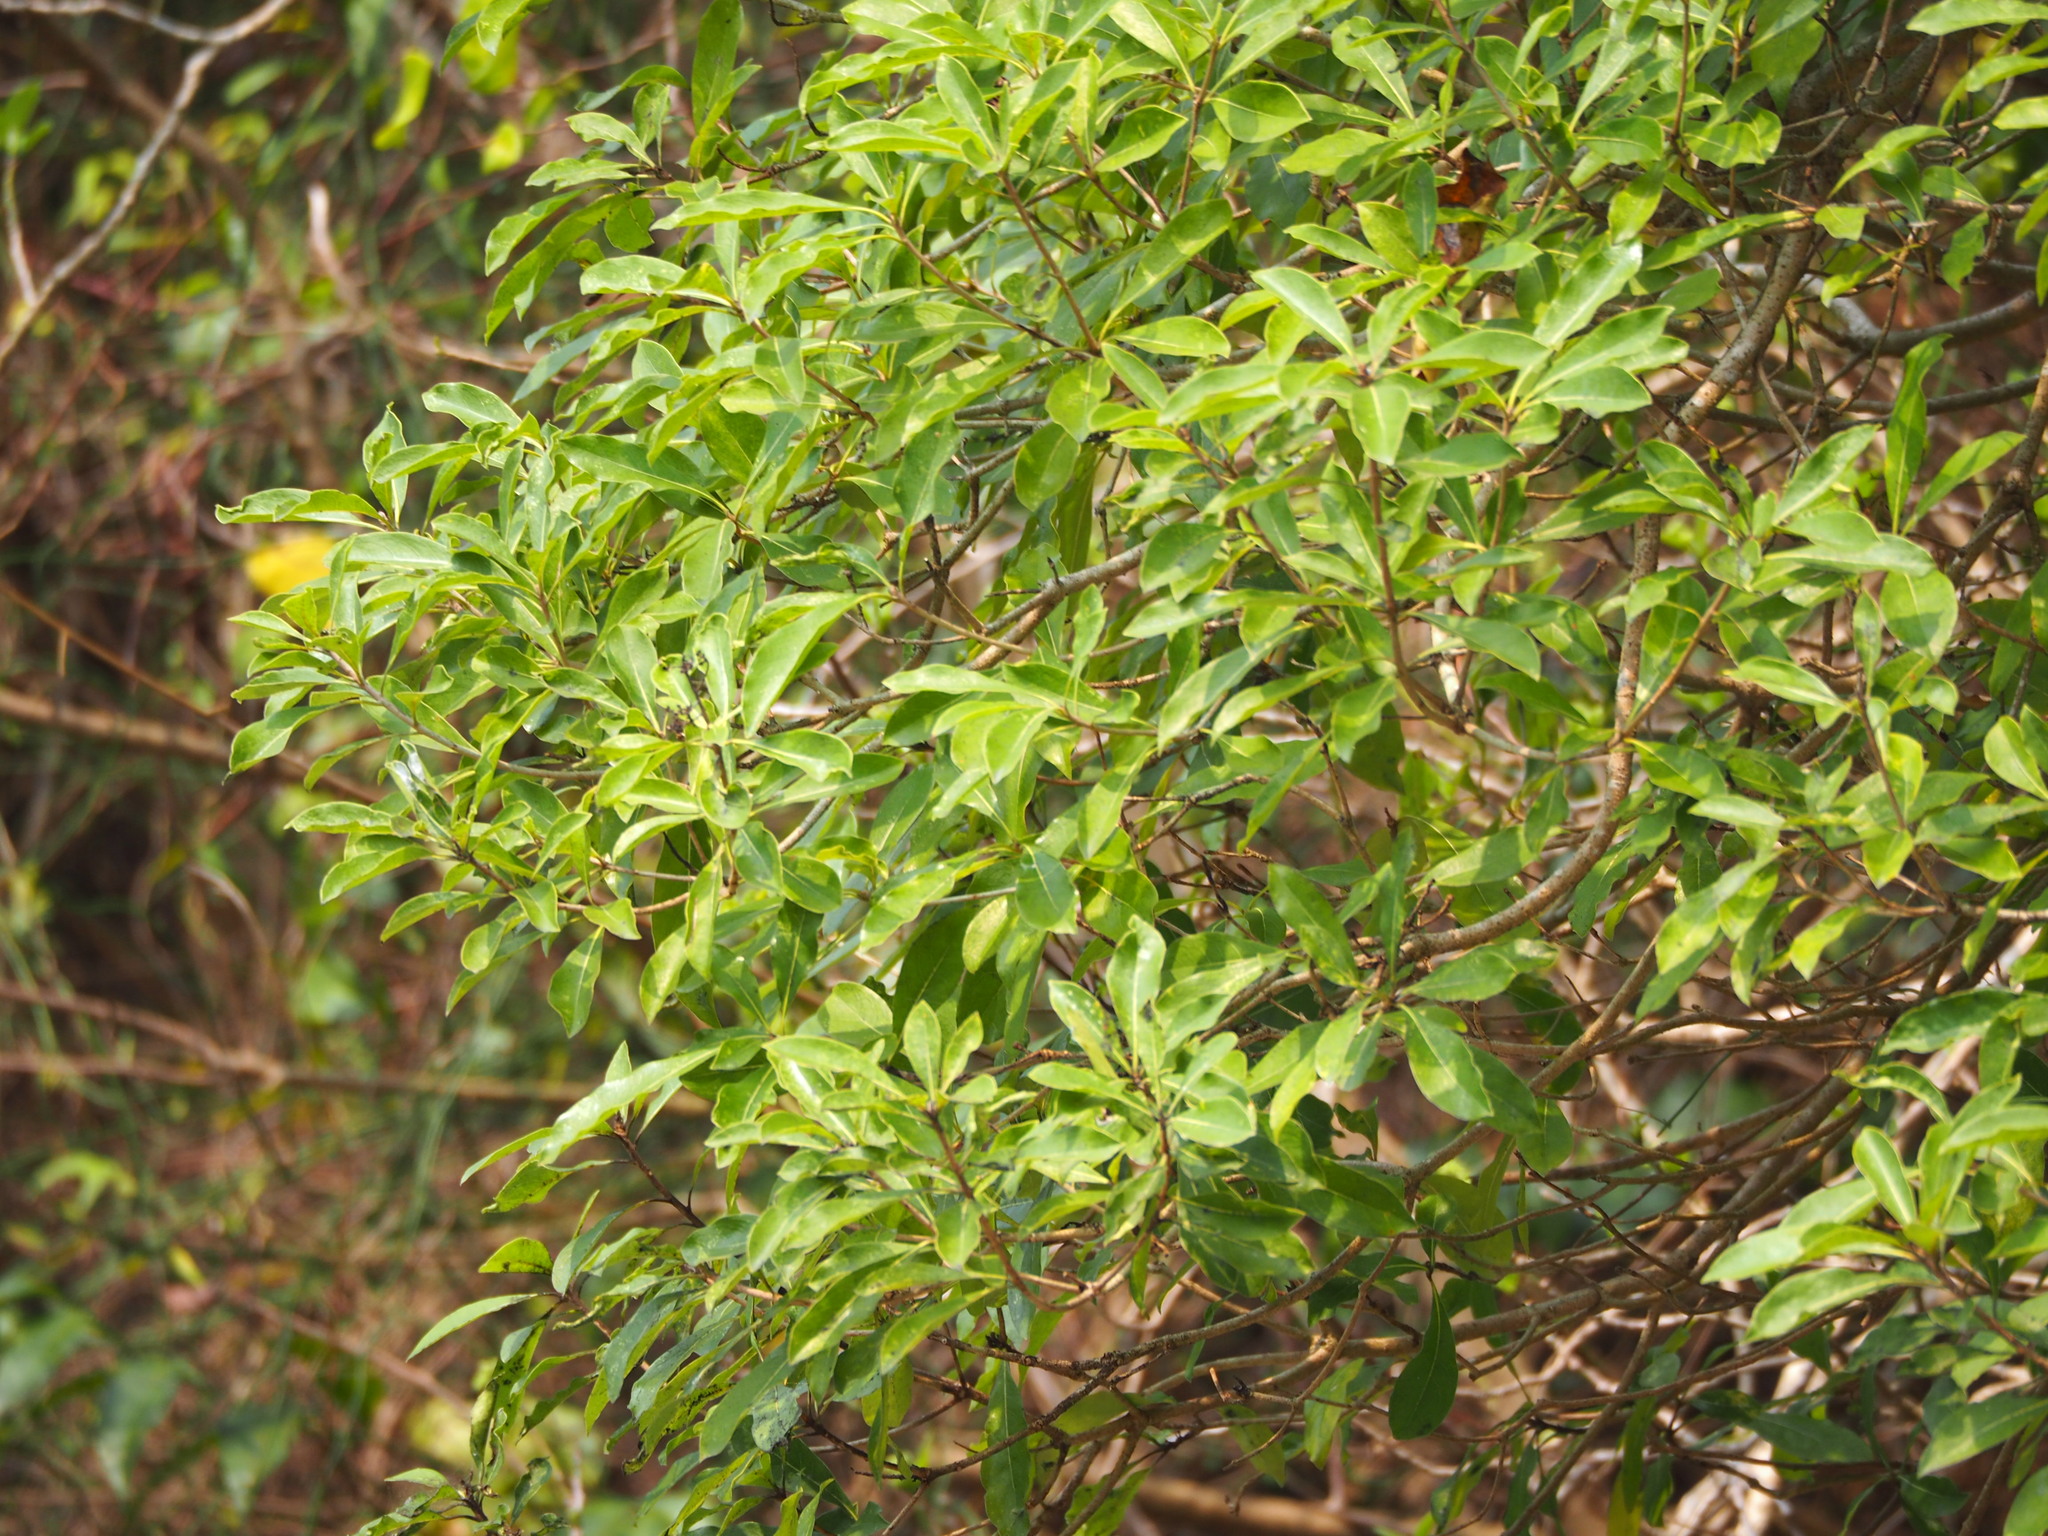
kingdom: Plantae
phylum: Tracheophyta
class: Magnoliopsida
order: Apiales
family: Pittosporaceae
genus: Pittosporum
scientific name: Pittosporum pentandrum
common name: Taiwanese cheesewood
